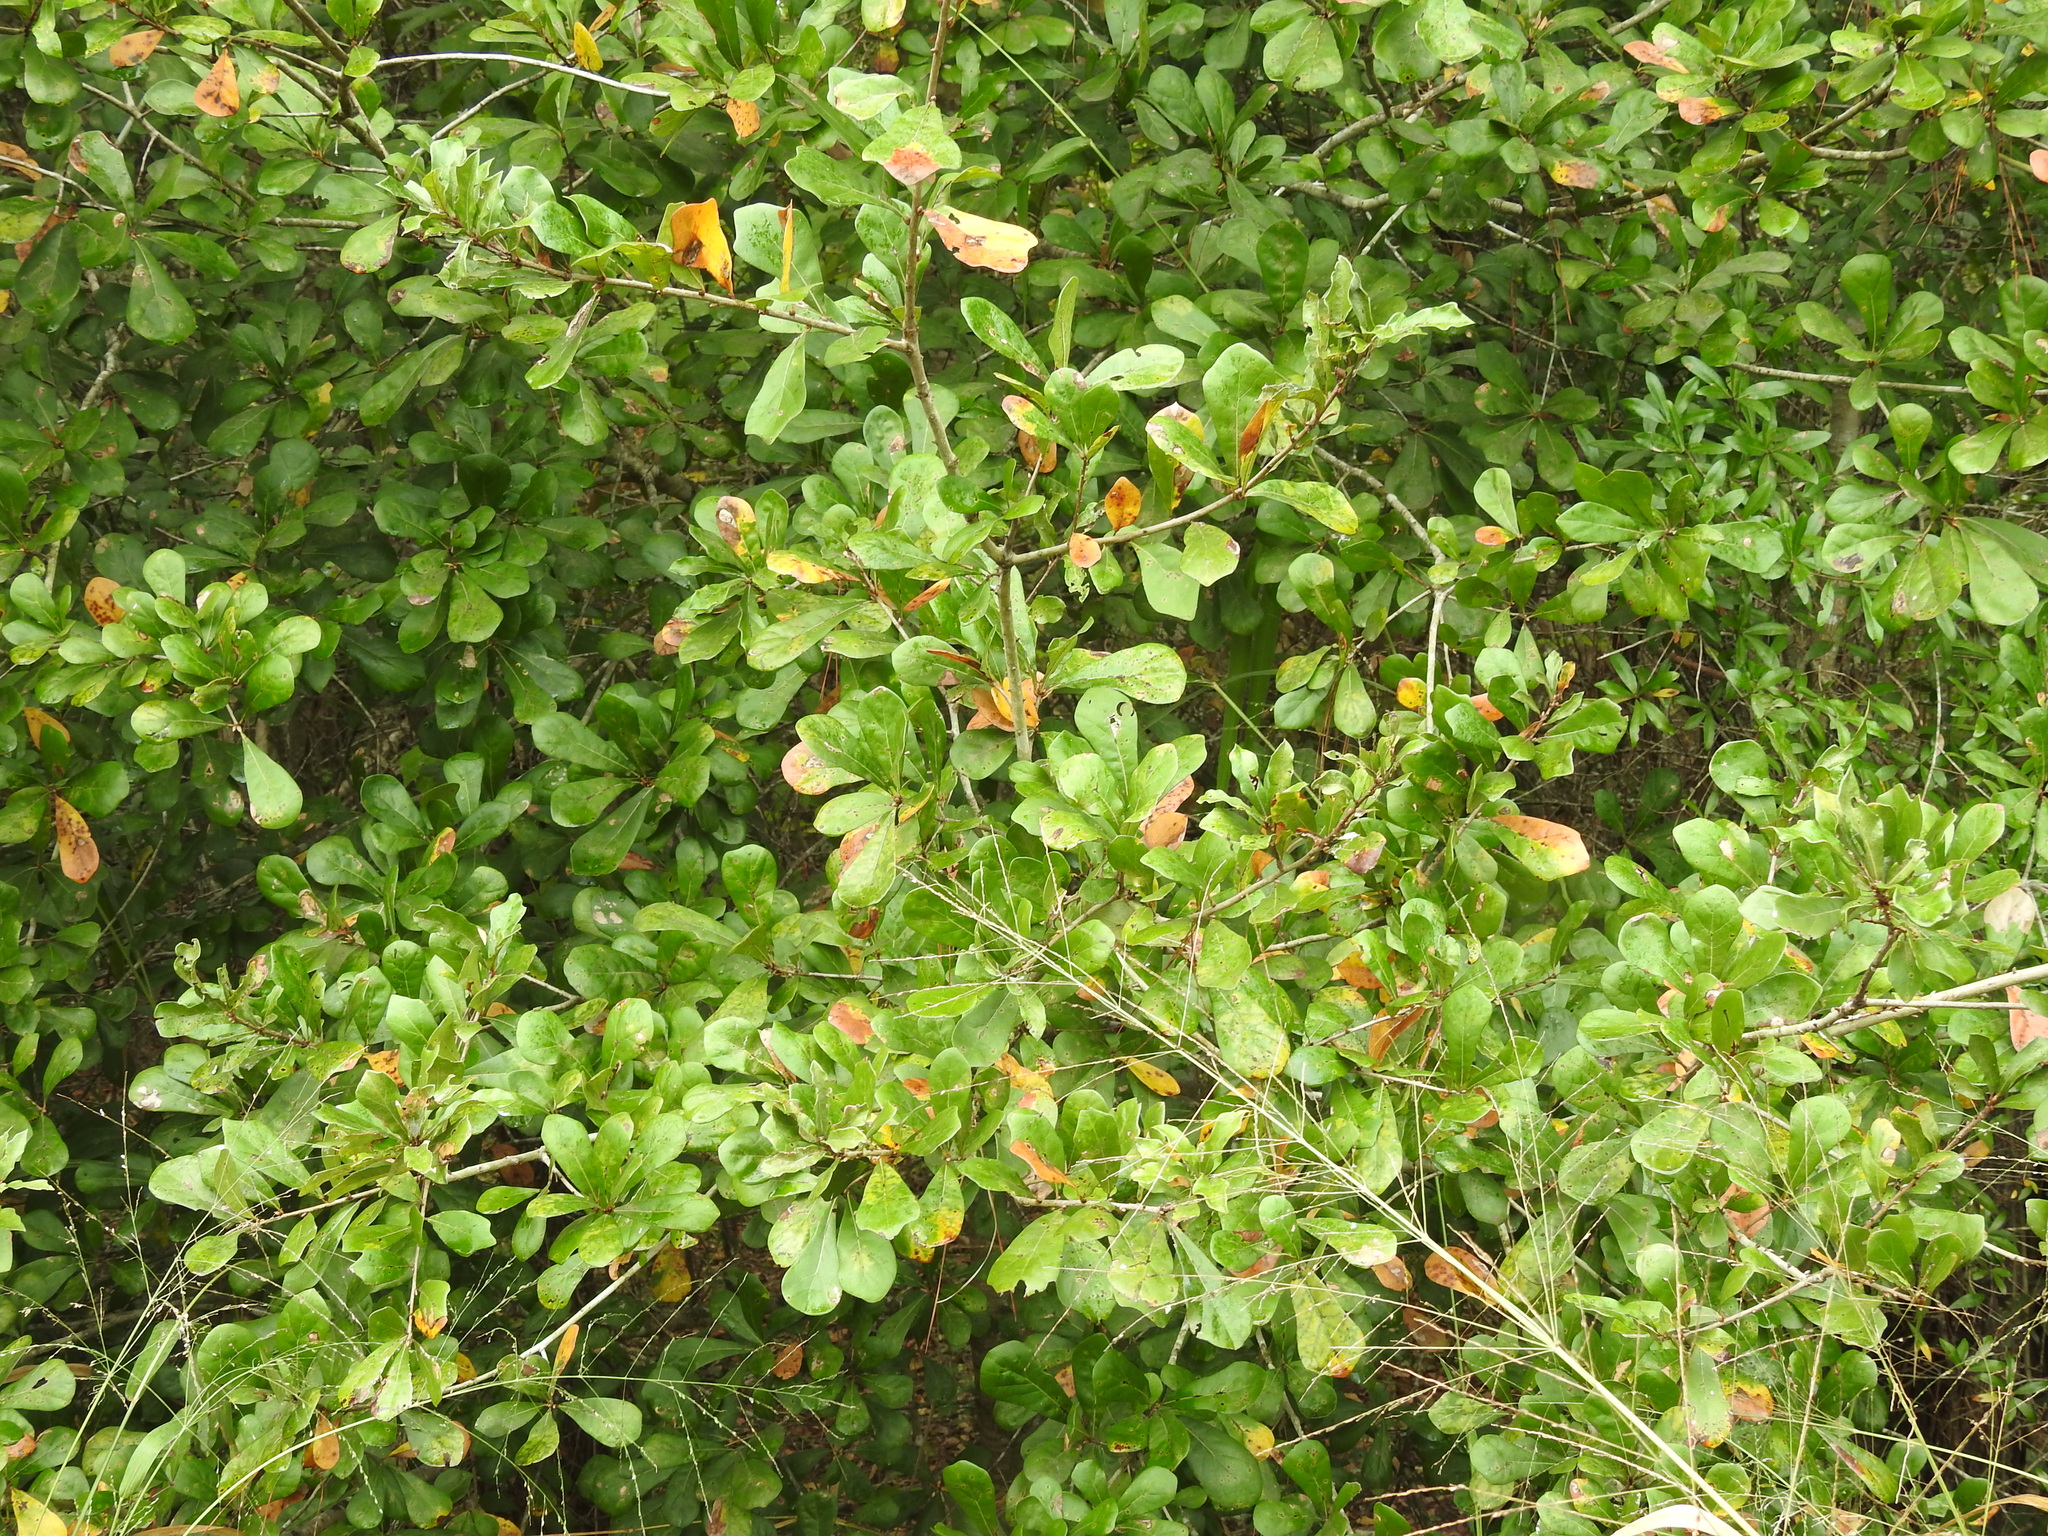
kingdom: Plantae
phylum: Tracheophyta
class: Magnoliopsida
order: Fagales
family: Fagaceae
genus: Quercus
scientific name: Quercus nigra
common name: Water oak
